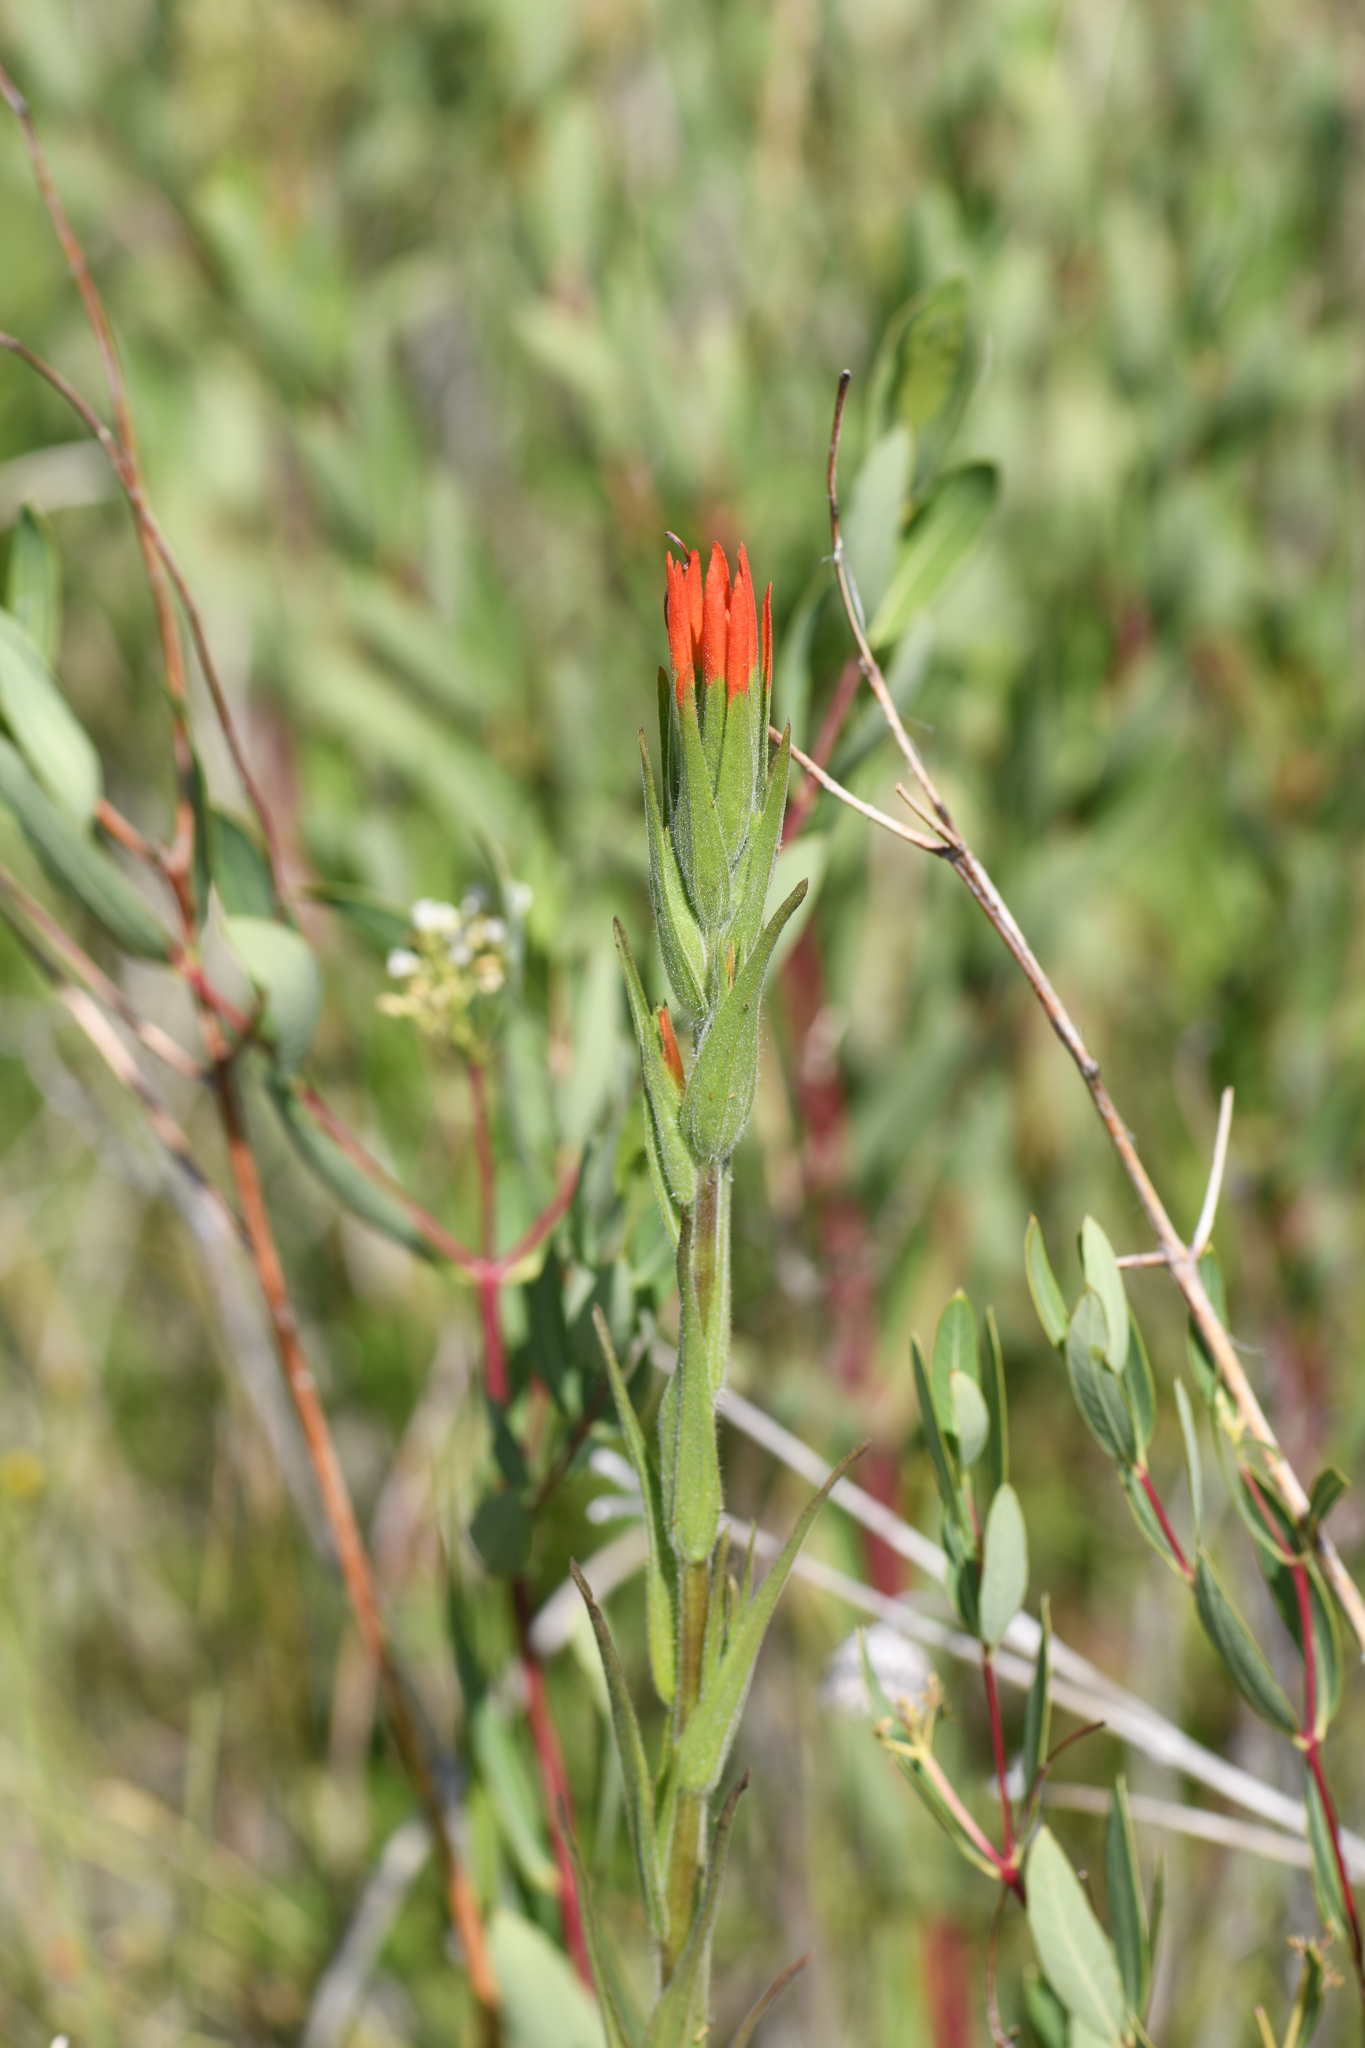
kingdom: Plantae
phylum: Tracheophyta
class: Magnoliopsida
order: Lamiales
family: Orobanchaceae
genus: Castilleja
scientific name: Castilleja minor
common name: Seep paintbrush
